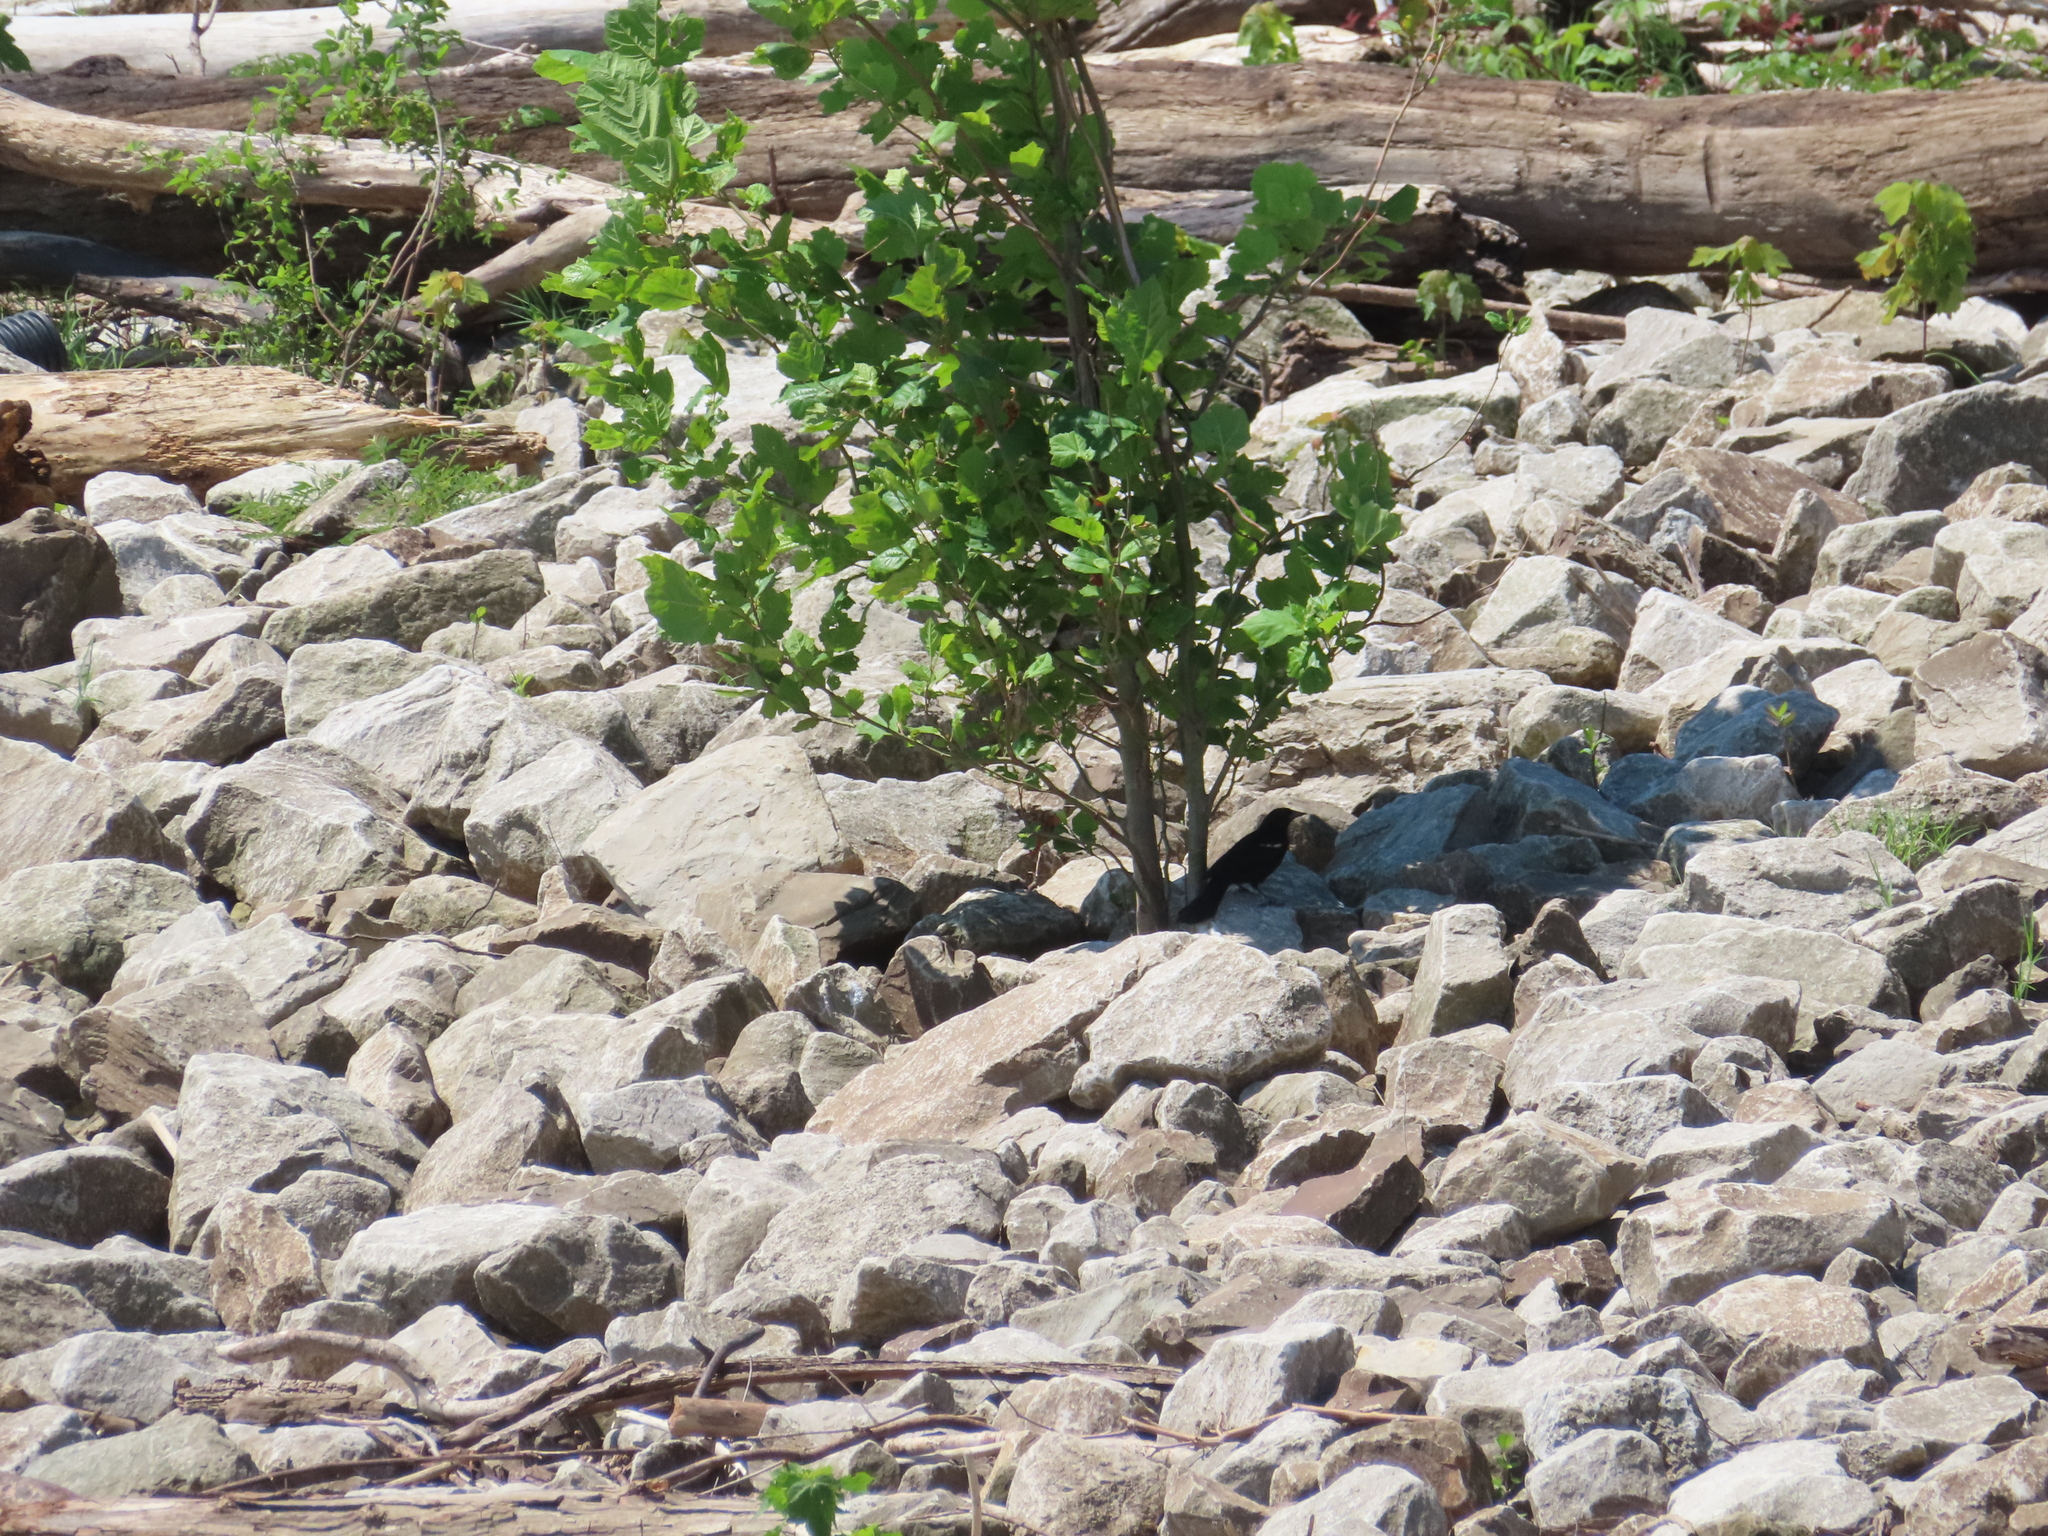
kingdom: Animalia
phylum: Chordata
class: Aves
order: Passeriformes
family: Icteridae
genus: Agelaius
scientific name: Agelaius phoeniceus
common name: Red-winged blackbird
